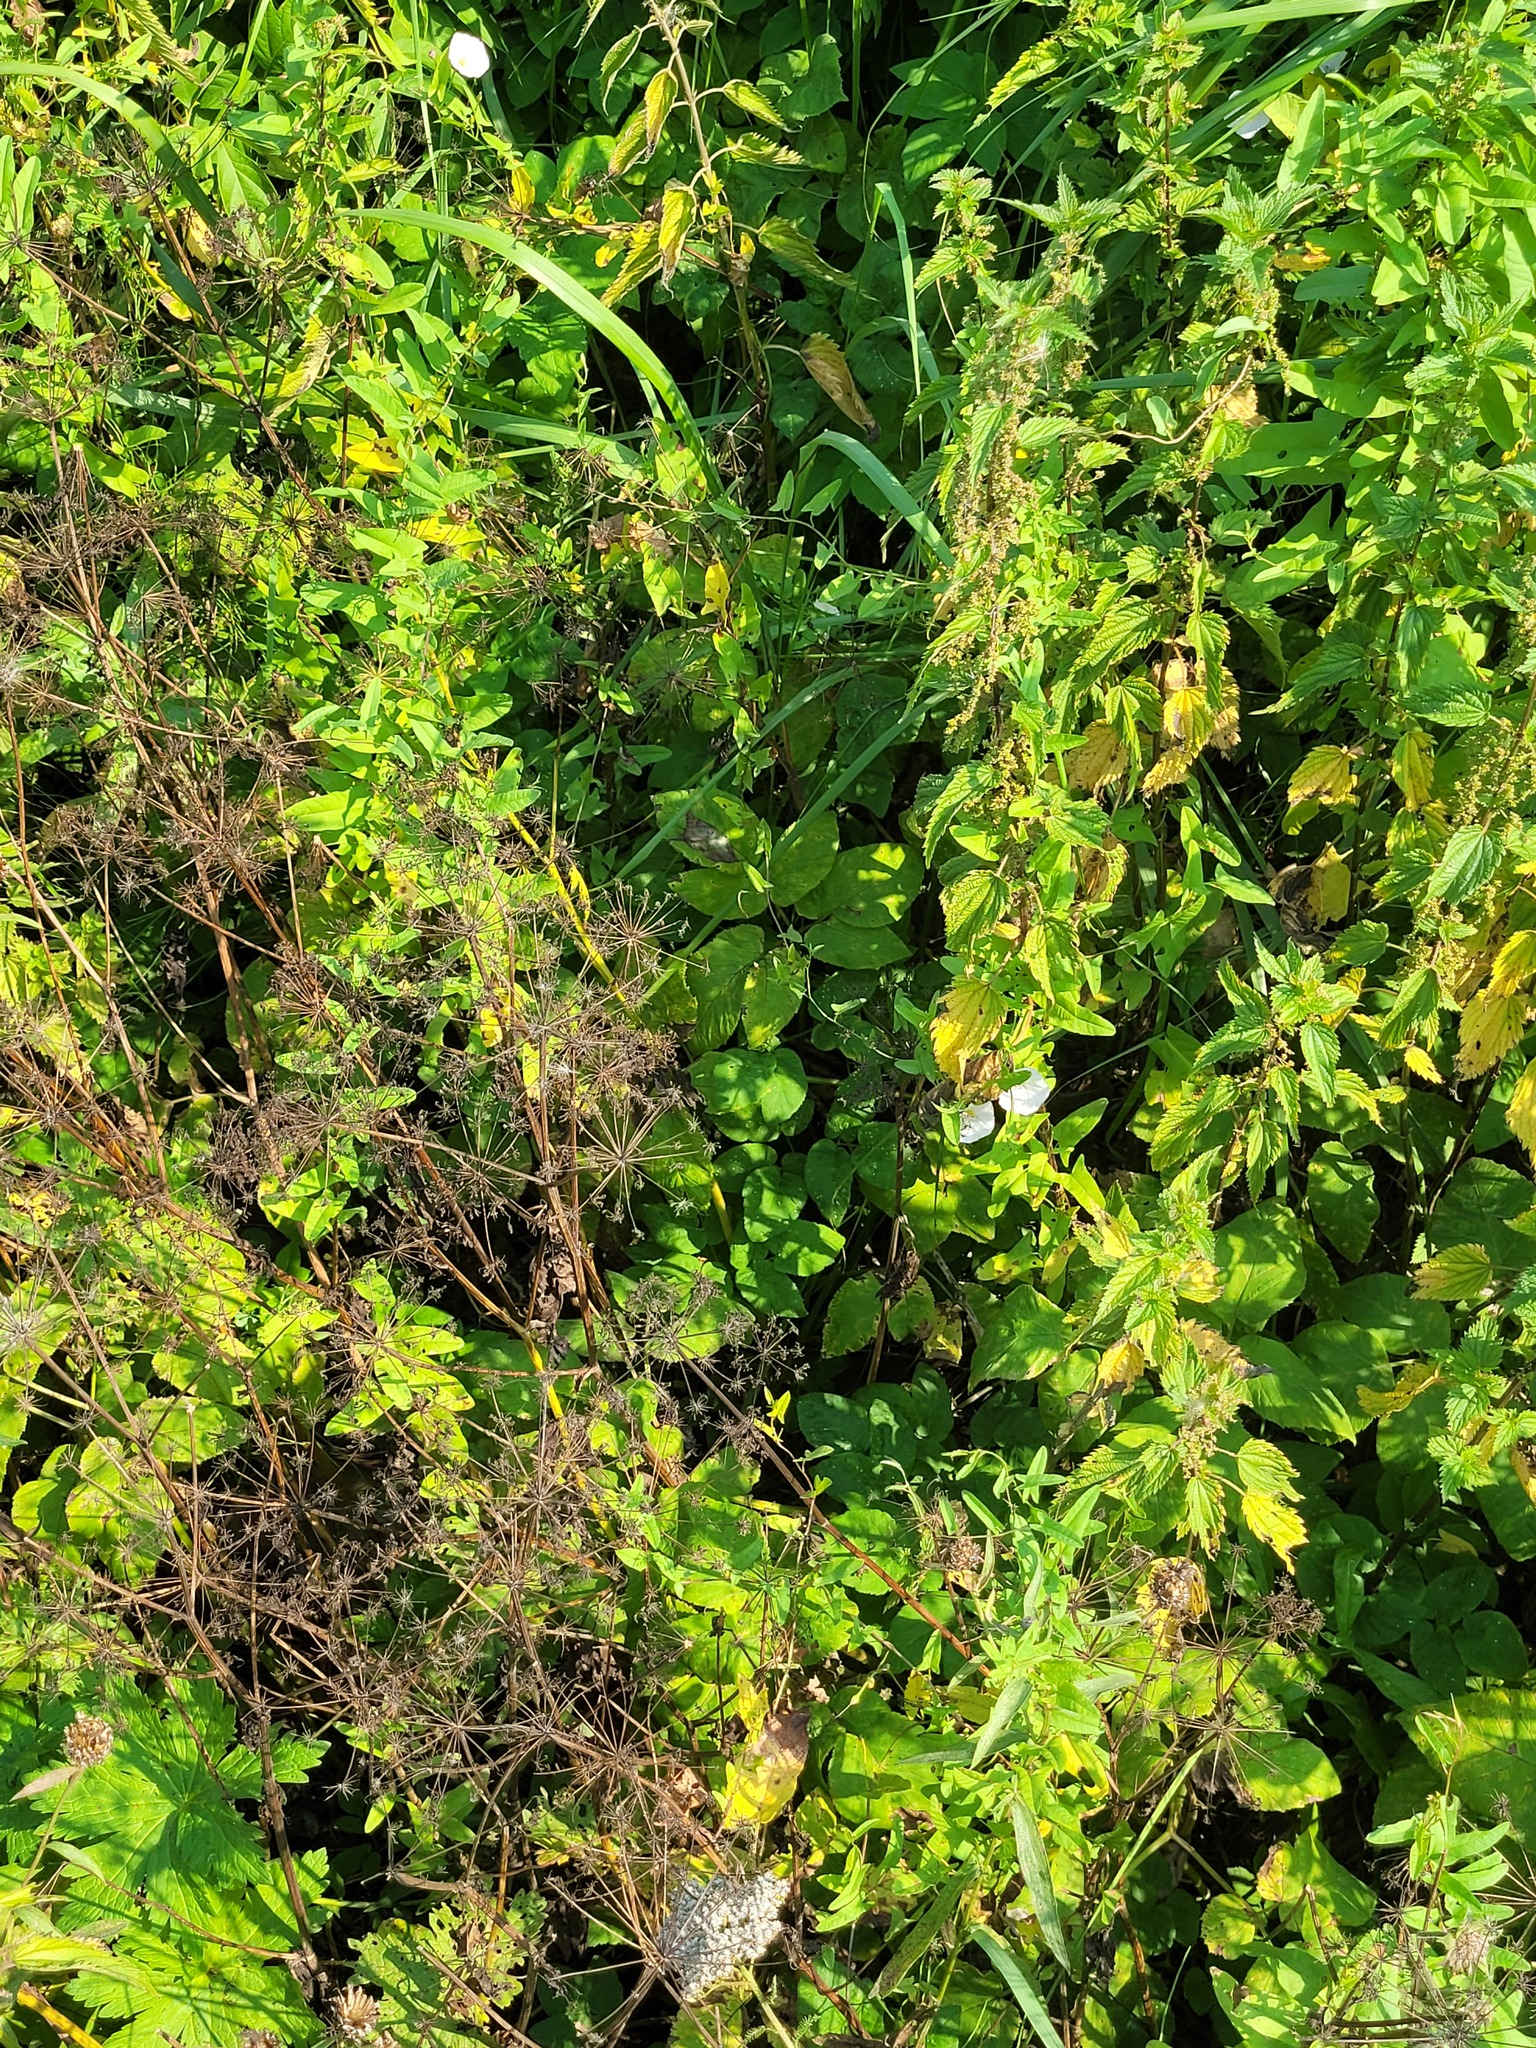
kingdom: Plantae
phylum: Tracheophyta
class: Magnoliopsida
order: Apiales
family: Apiaceae
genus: Aegopodium
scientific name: Aegopodium podagraria
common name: Ground-elder
